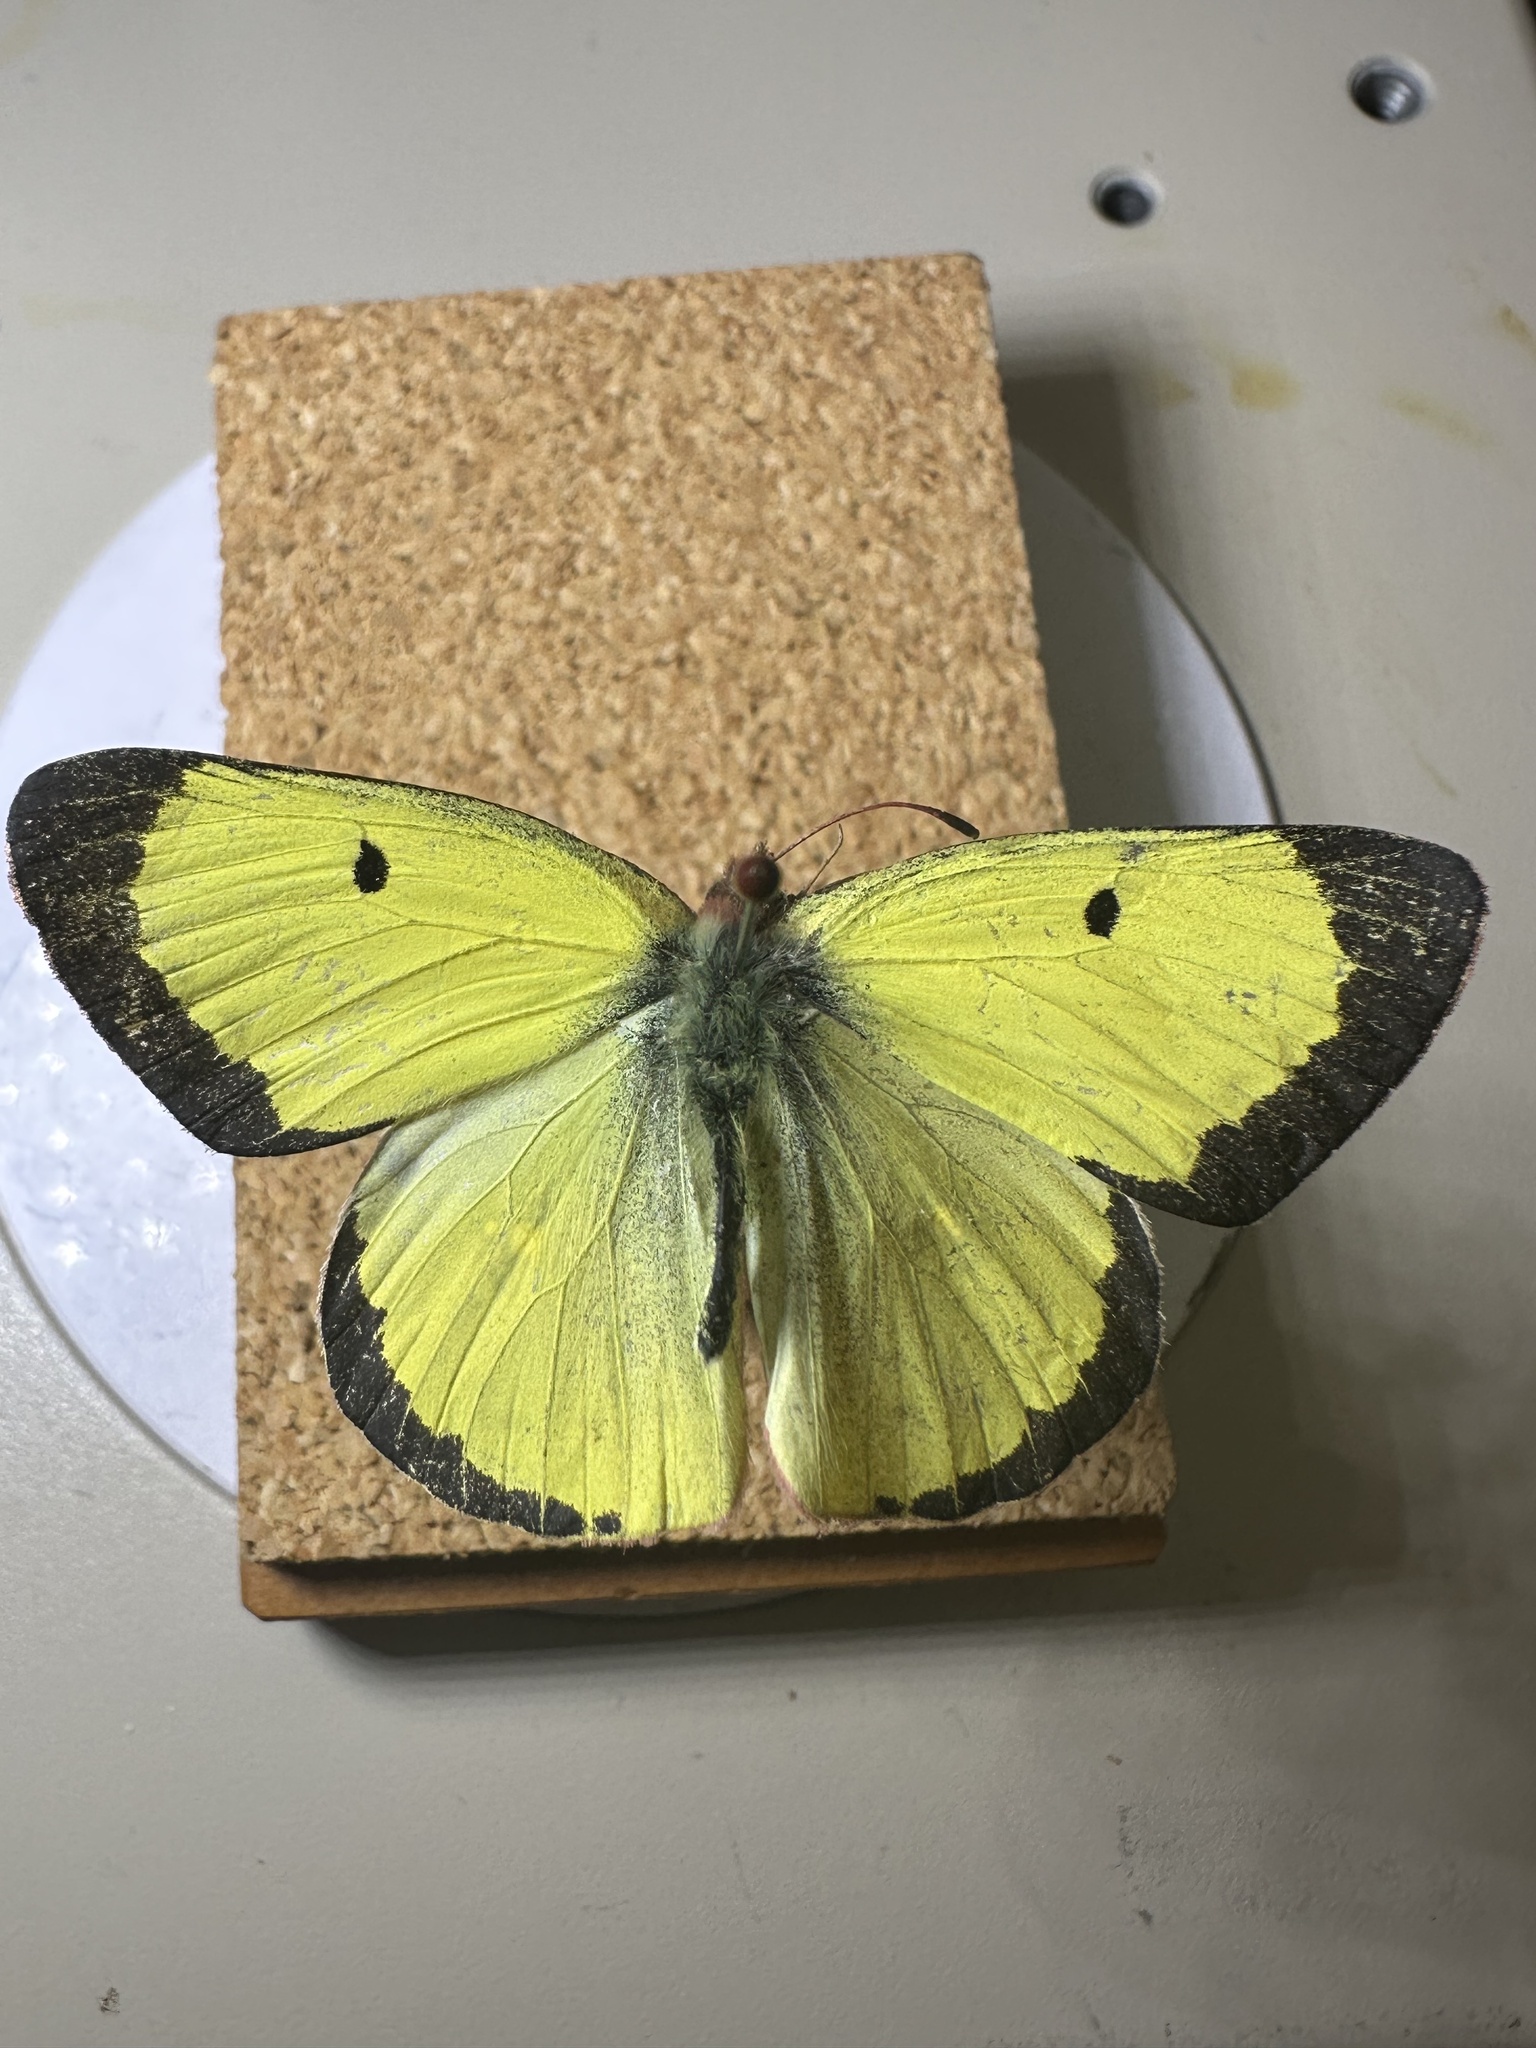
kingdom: Animalia
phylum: Arthropoda
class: Insecta
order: Lepidoptera
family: Pieridae
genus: Colias
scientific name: Colias philodice
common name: Clouded sulphur
